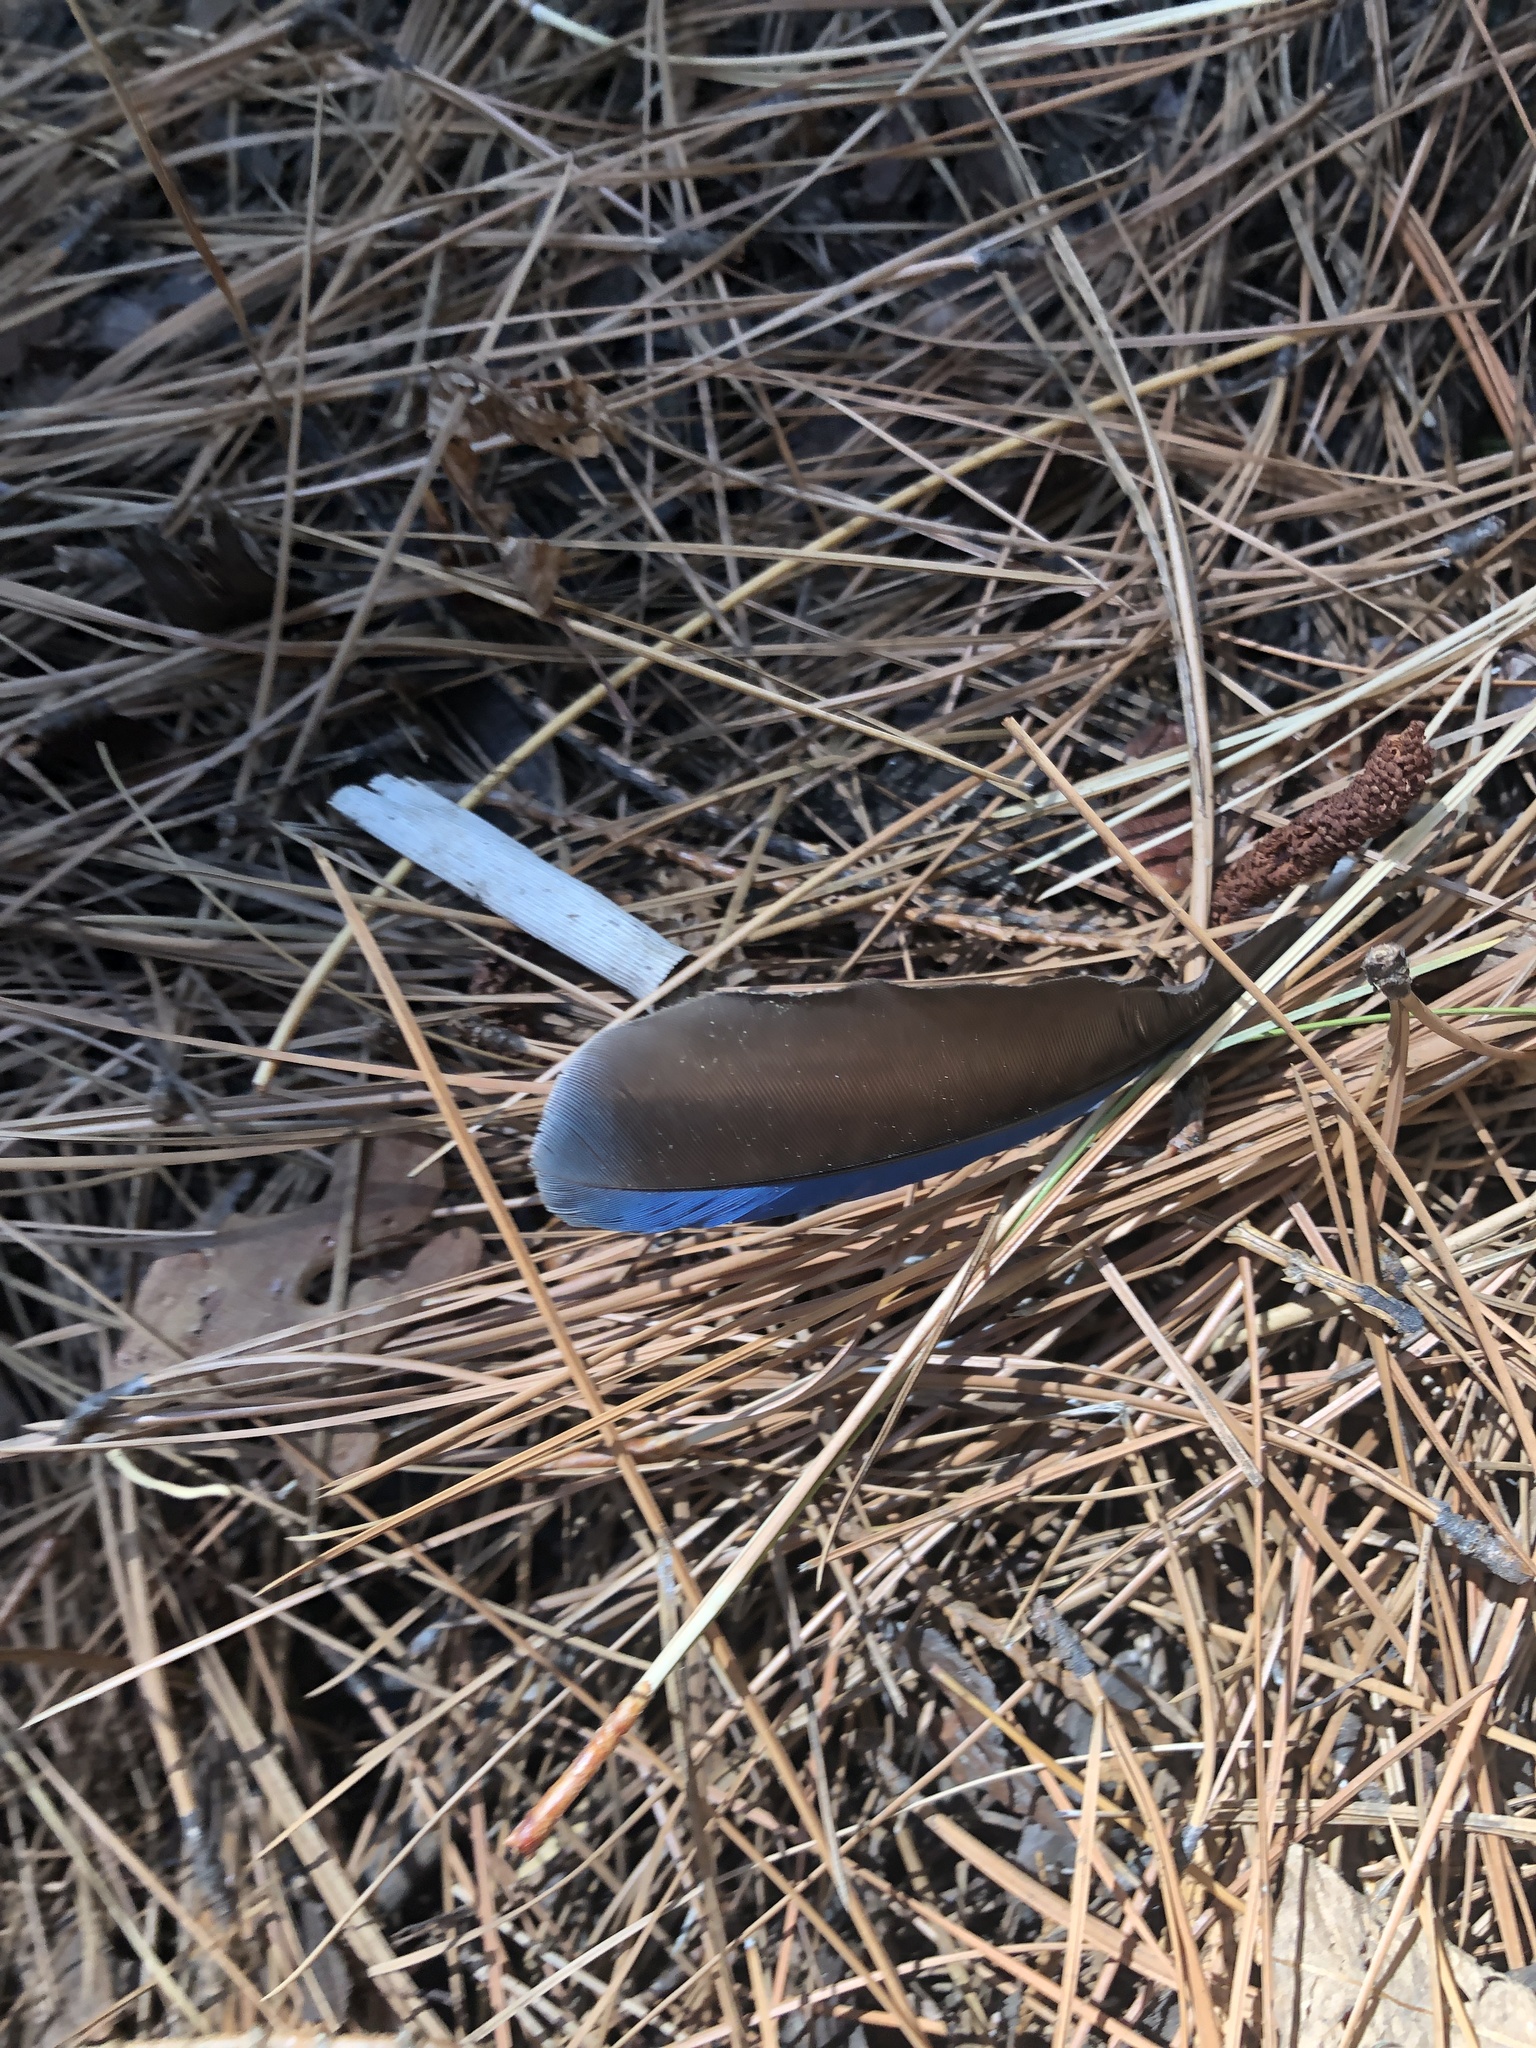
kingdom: Animalia
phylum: Chordata
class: Aves
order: Passeriformes
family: Corvidae
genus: Cyanocitta
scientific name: Cyanocitta stelleri
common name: Steller's jay
